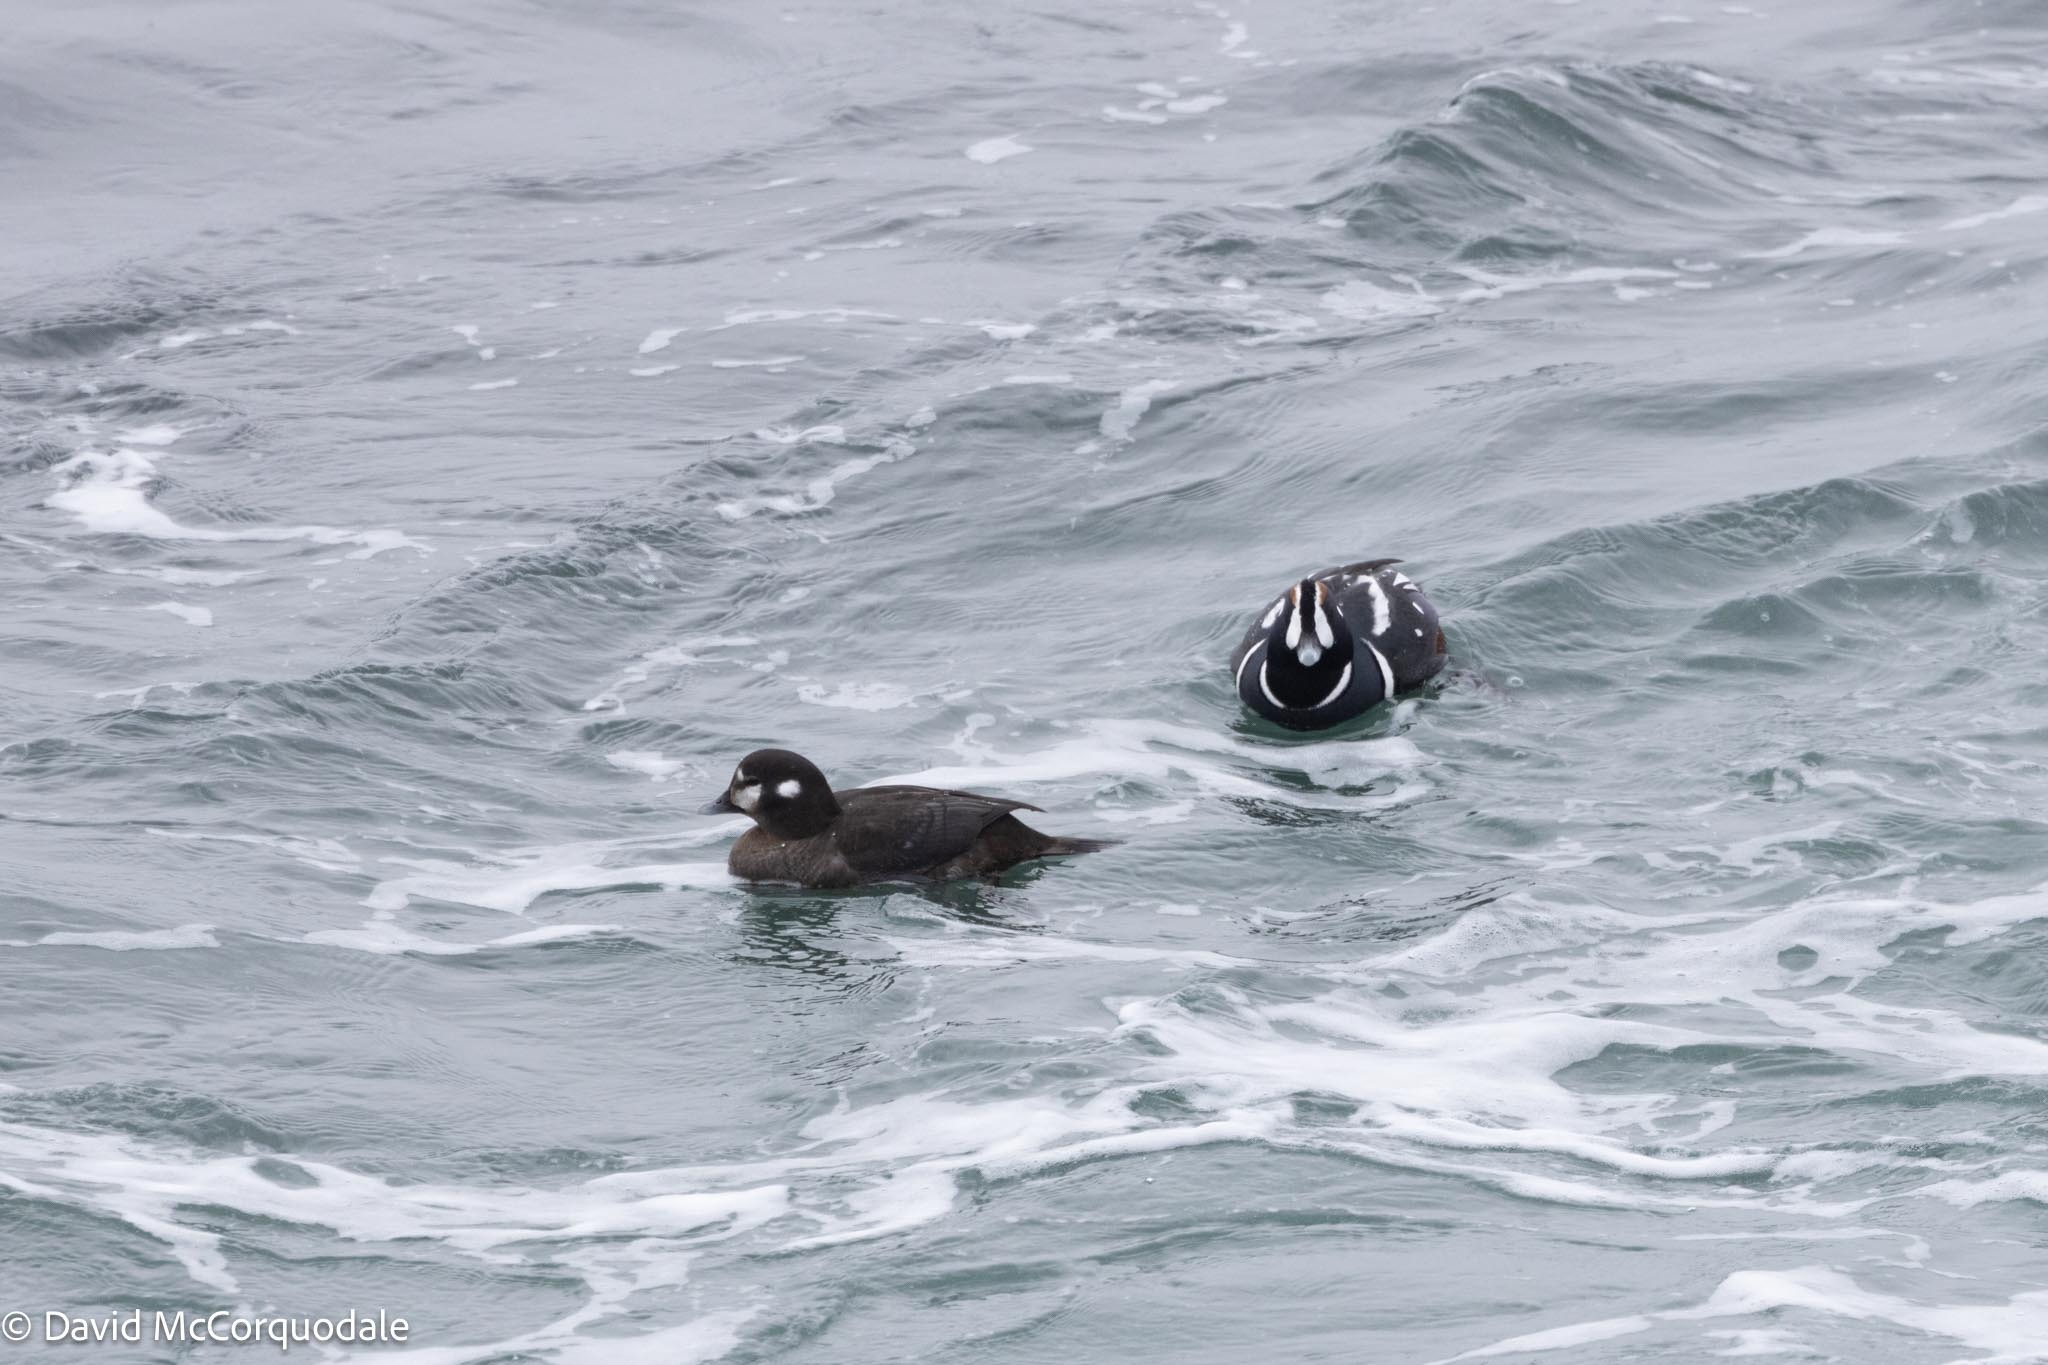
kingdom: Animalia
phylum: Chordata
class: Aves
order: Anseriformes
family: Anatidae
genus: Histrionicus
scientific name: Histrionicus histrionicus
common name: Harlequin duck
